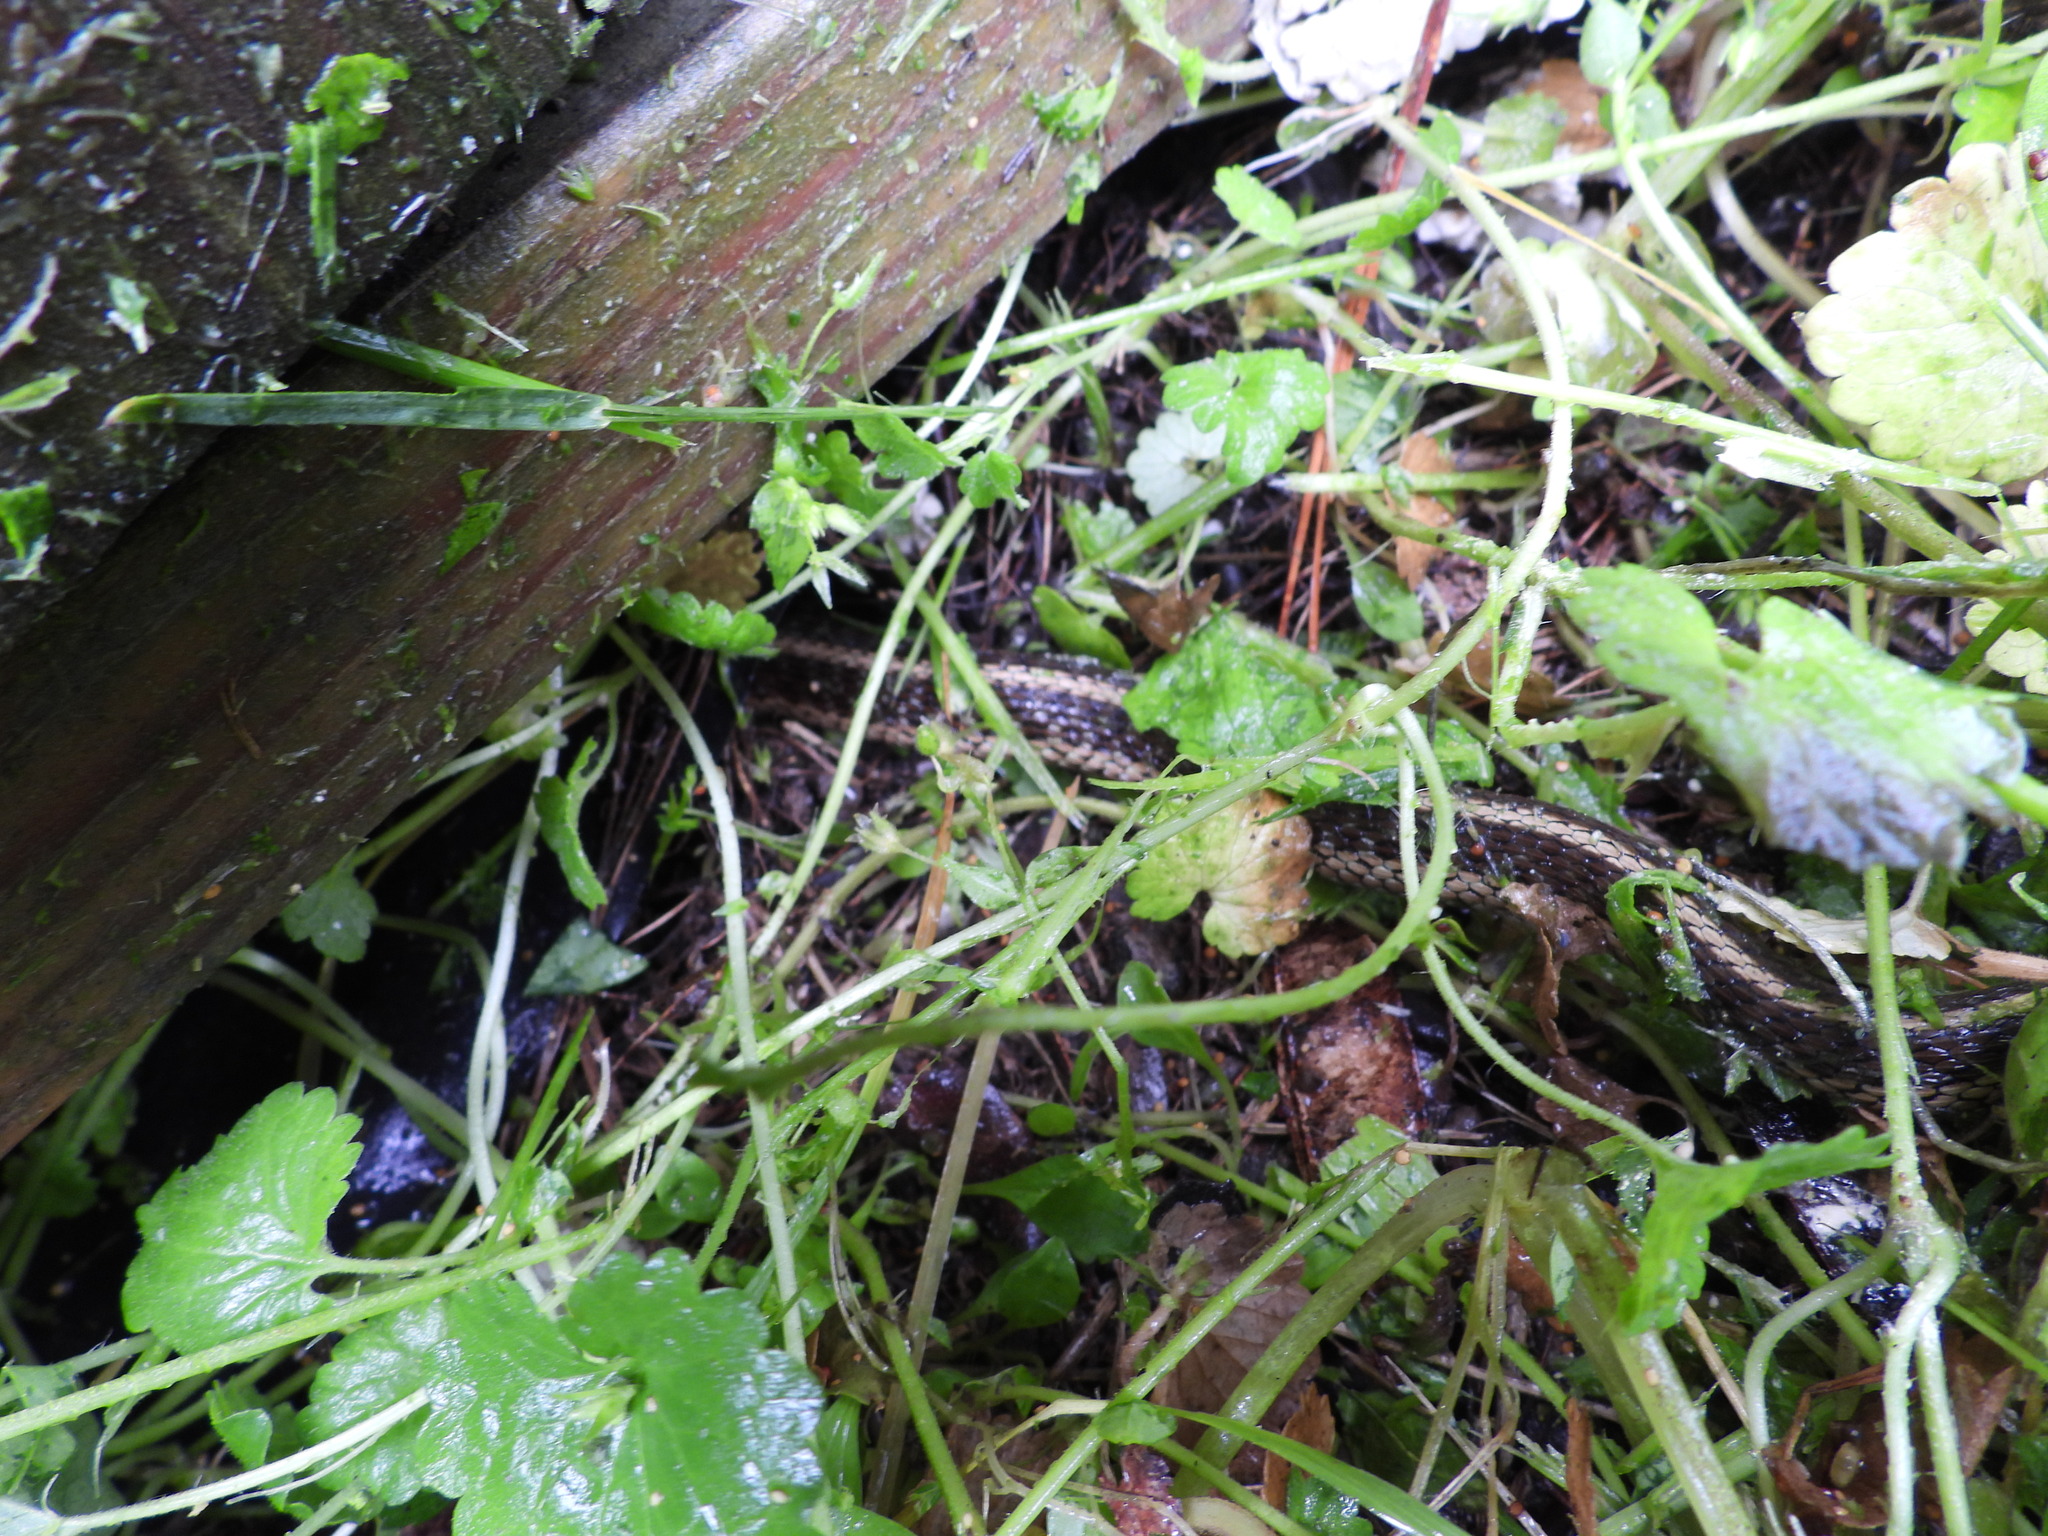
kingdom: Animalia
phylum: Chordata
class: Squamata
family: Colubridae
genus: Thamnophis
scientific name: Thamnophis sirtalis
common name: Common garter snake
